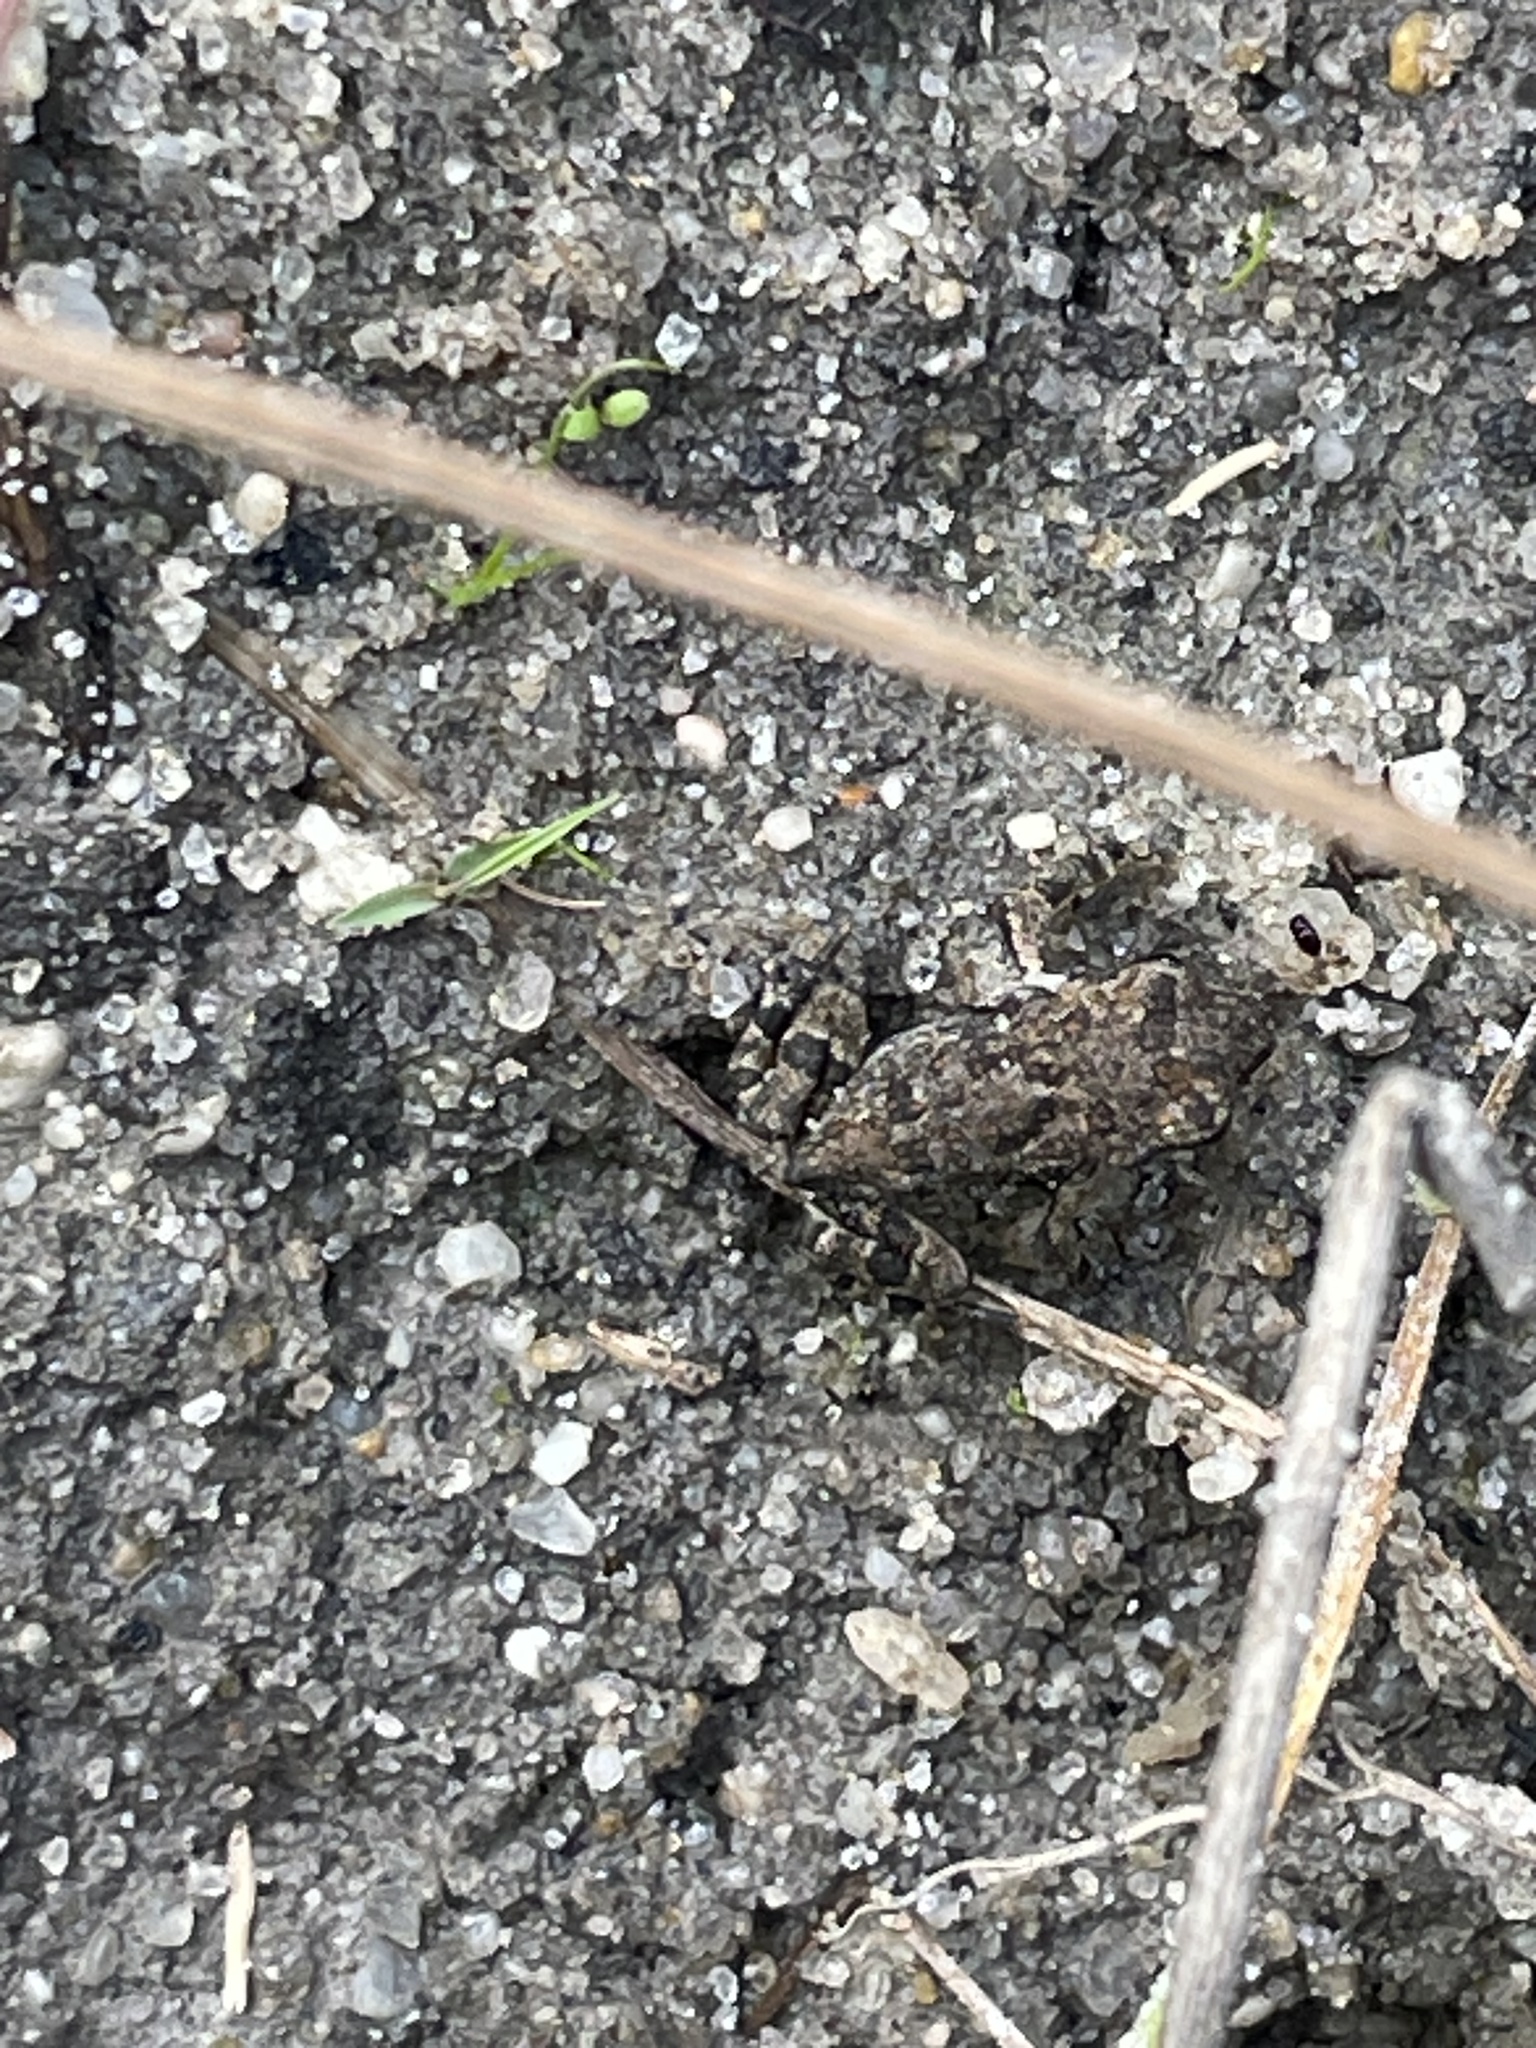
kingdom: Animalia
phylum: Chordata
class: Amphibia
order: Anura
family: Bufonidae
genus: Anaxyrus
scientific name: Anaxyrus fowleri
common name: Fowler's toad
